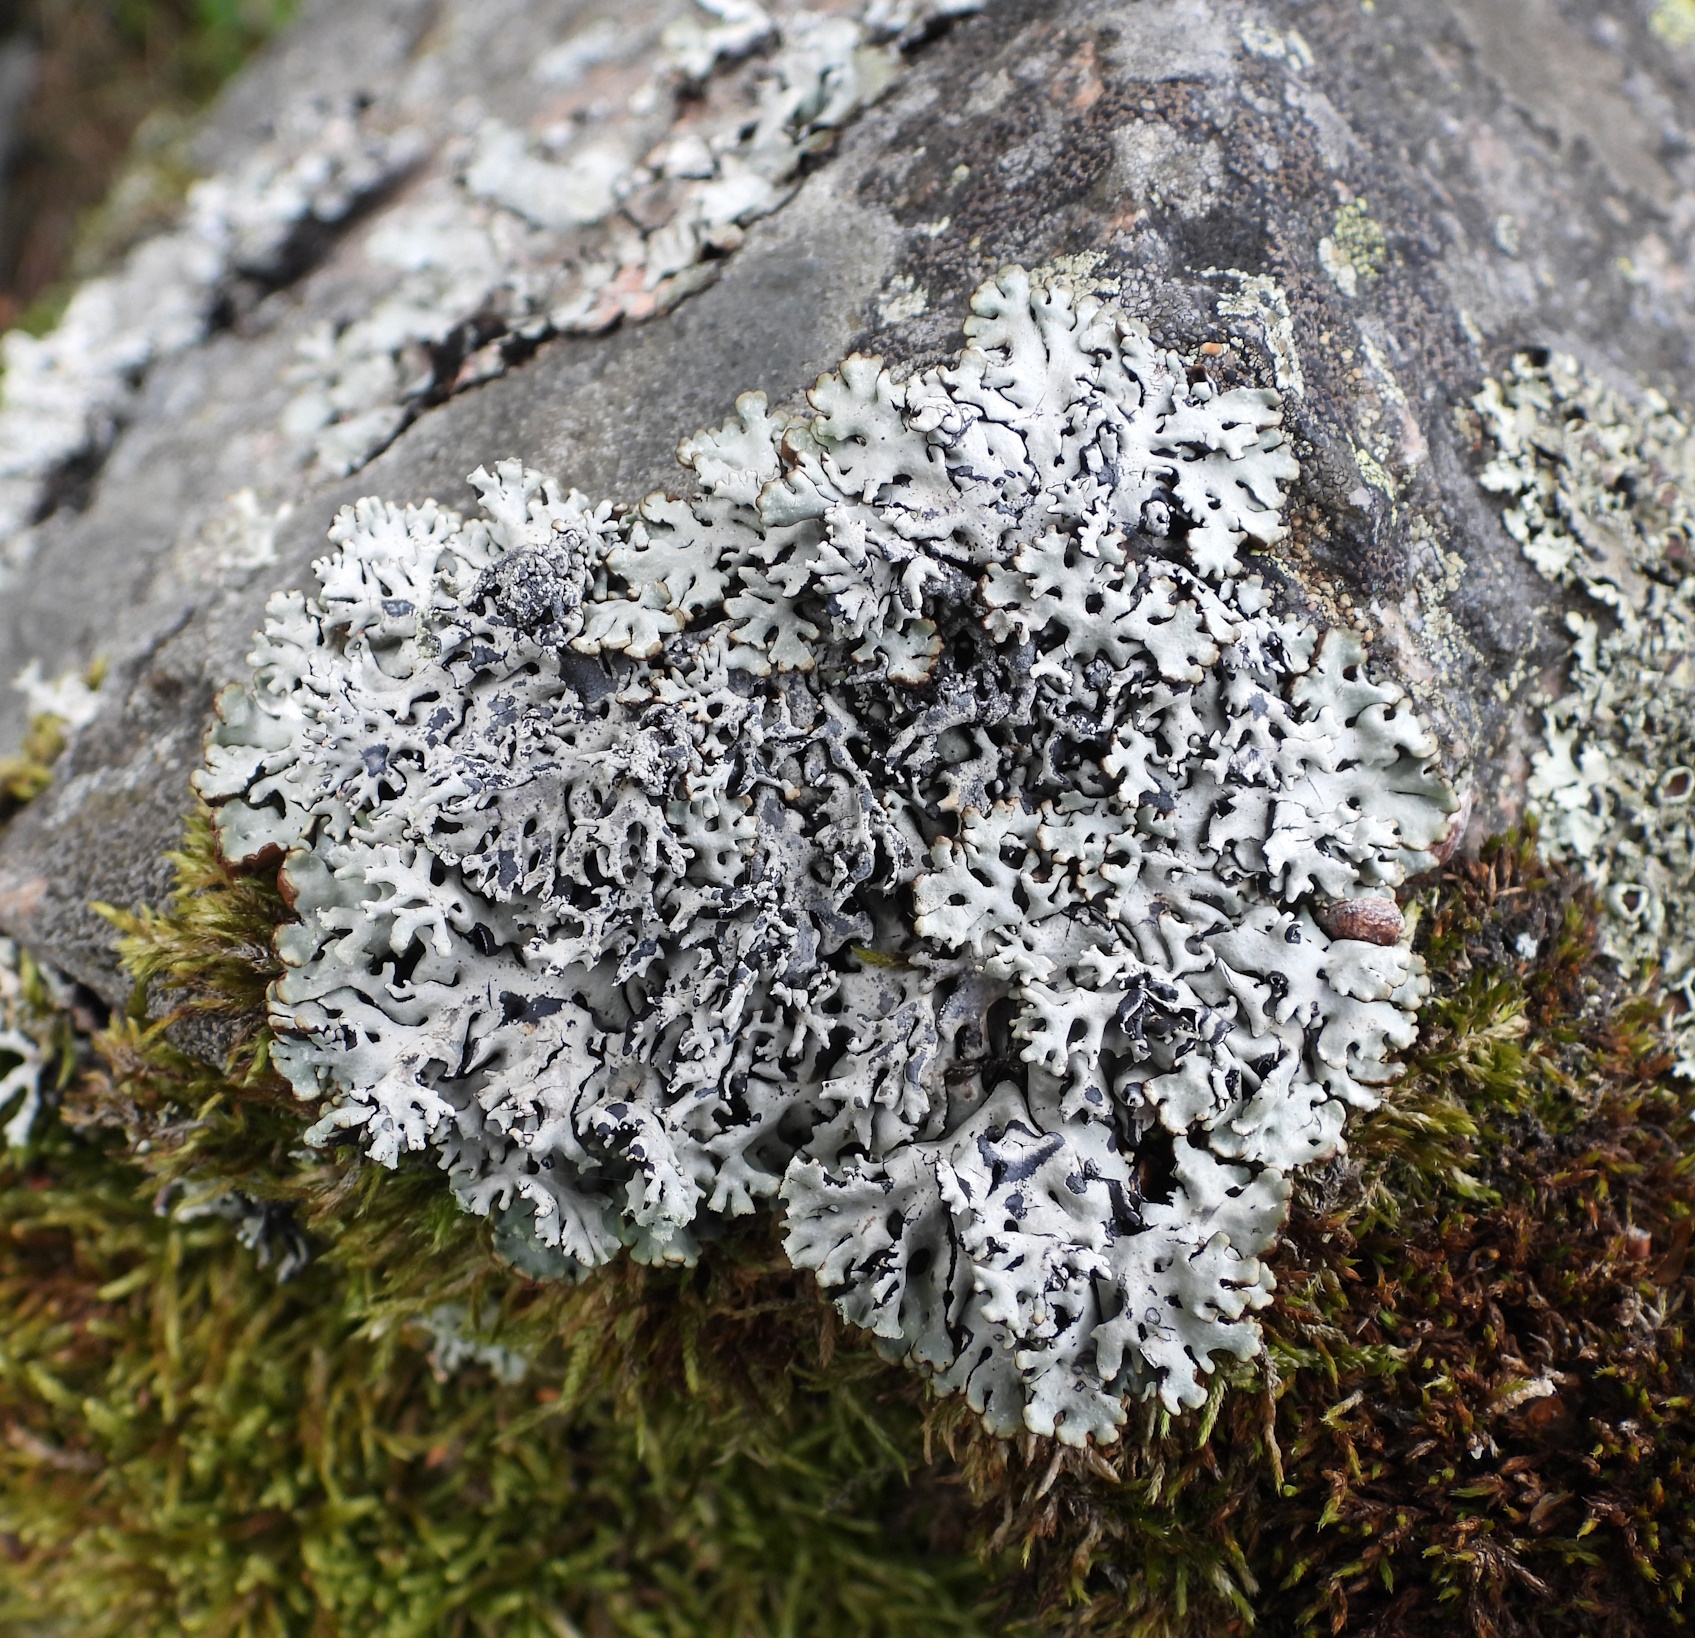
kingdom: Fungi
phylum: Ascomycota
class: Lecanoromycetes
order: Lecanorales
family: Parmeliaceae
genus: Hypogymnia
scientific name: Hypogymnia physodes
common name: Dark crottle
